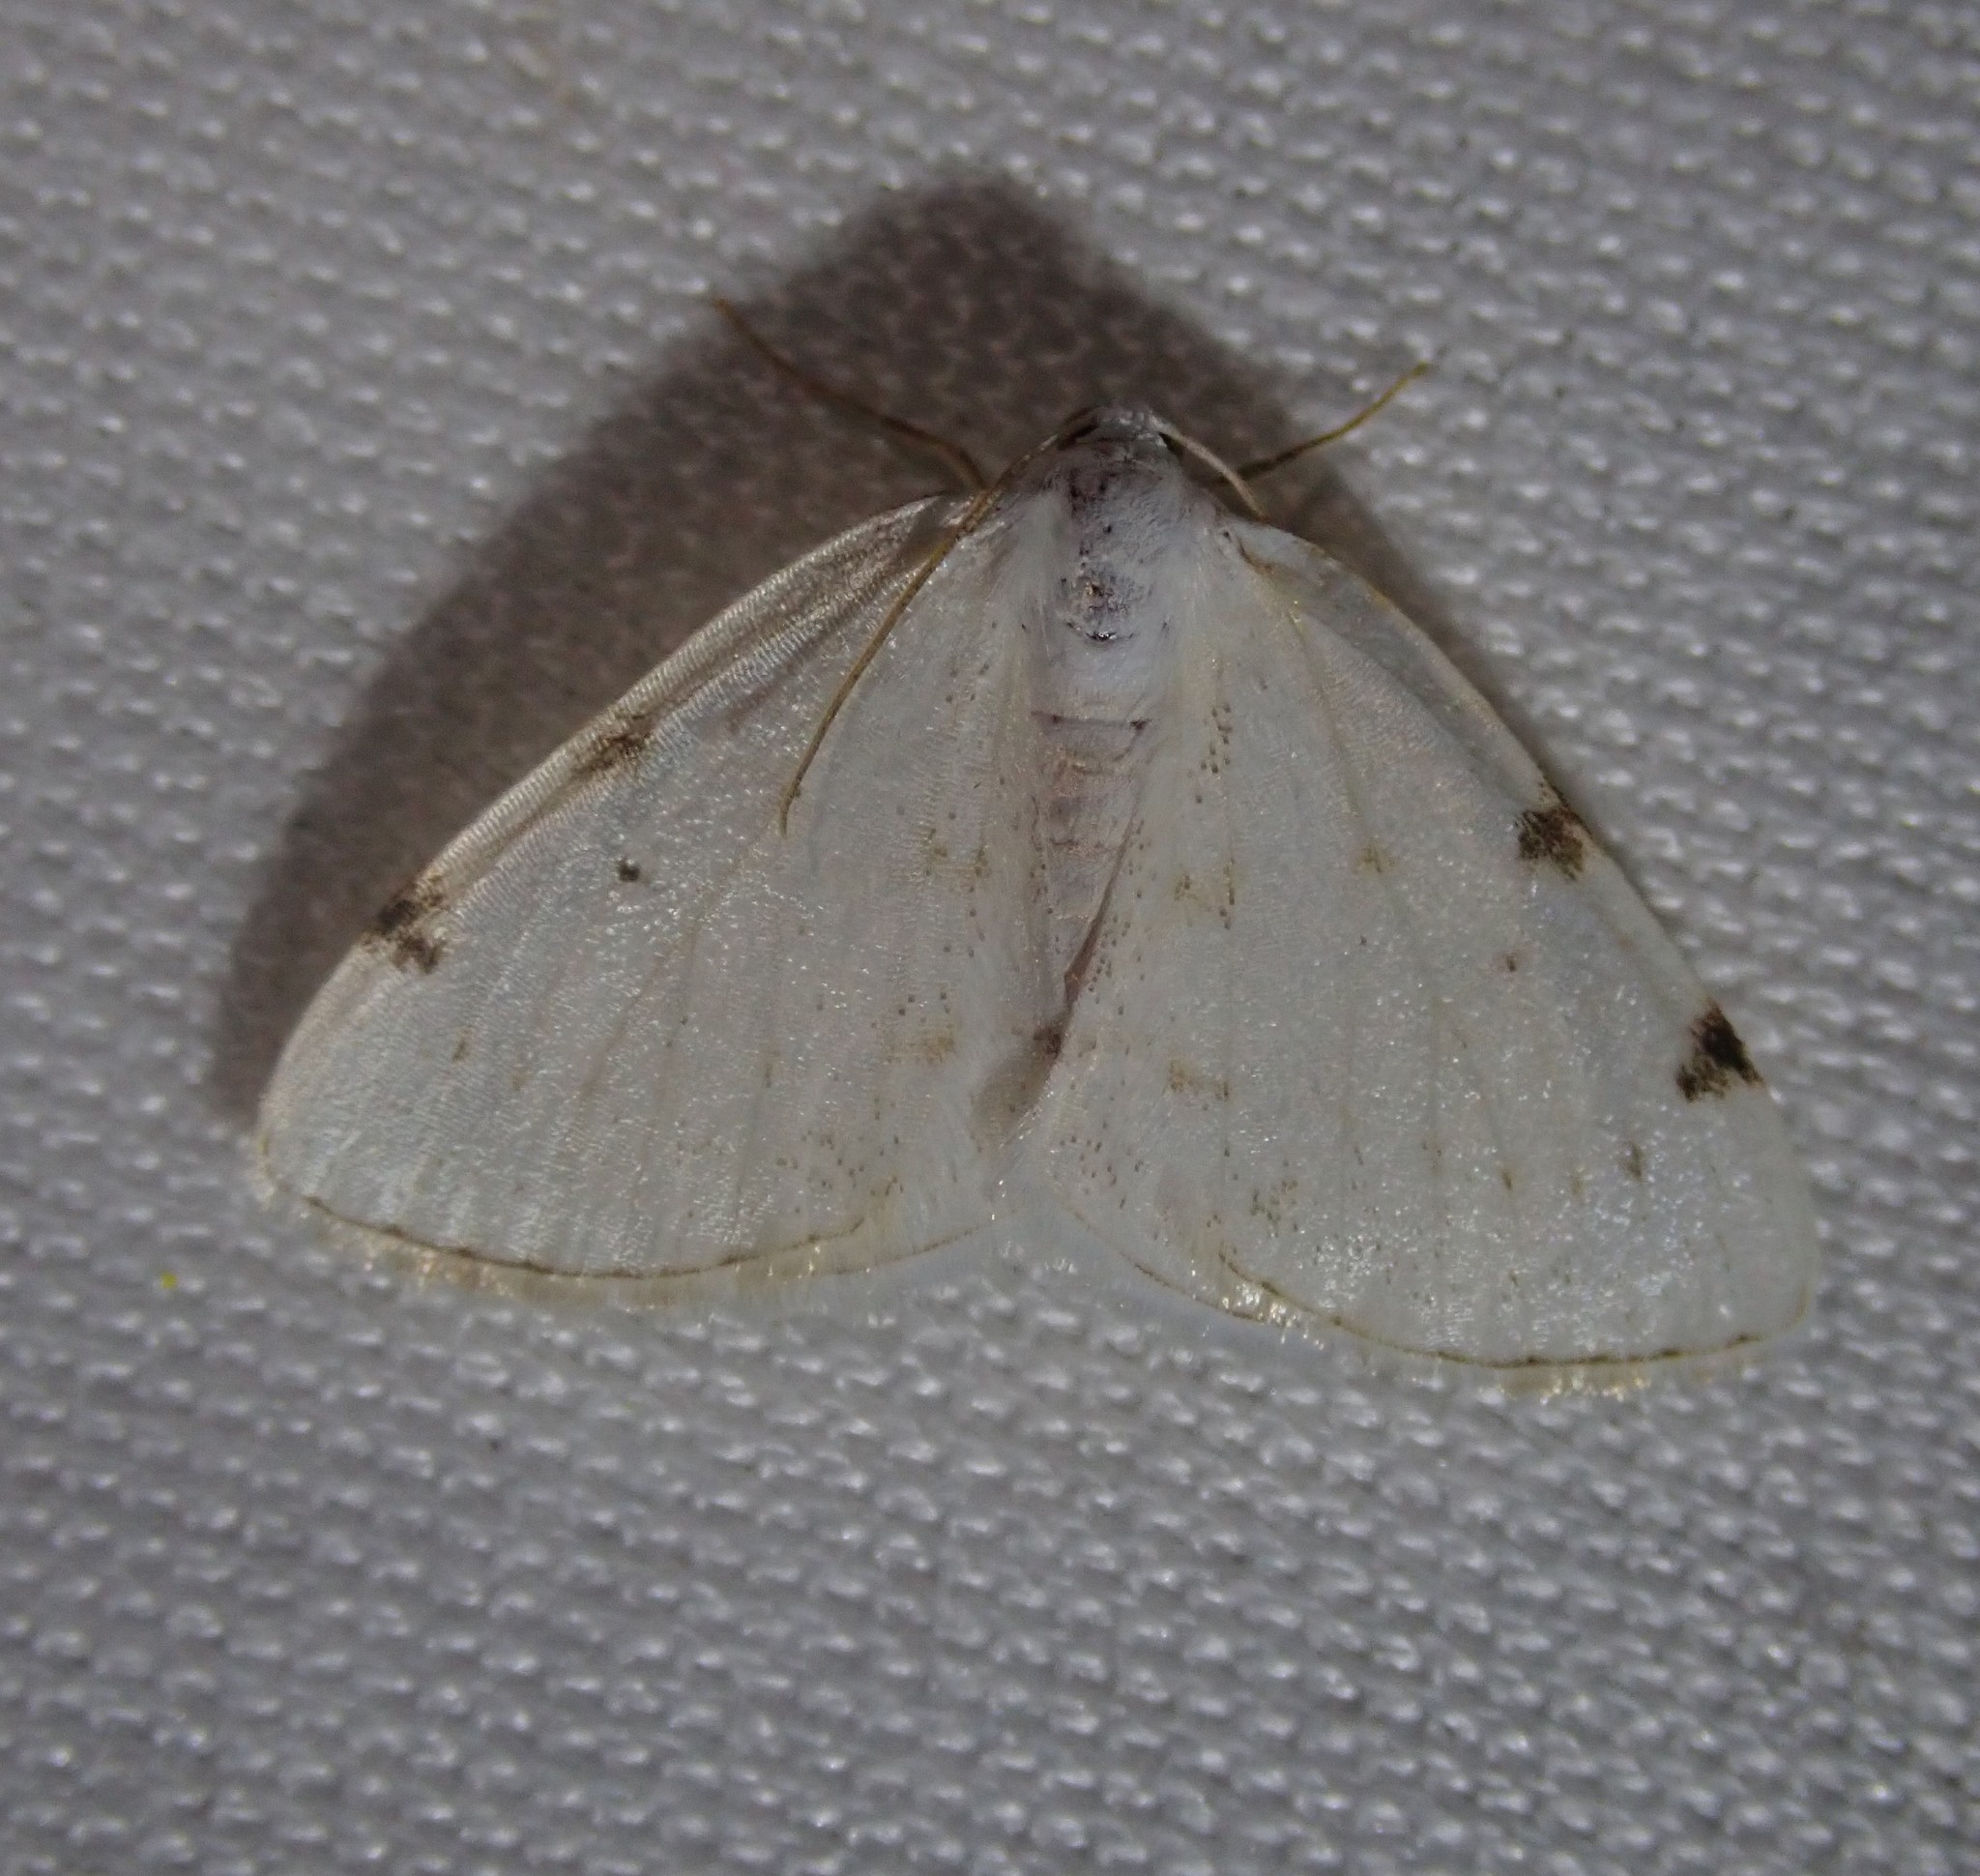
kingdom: Animalia
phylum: Arthropoda
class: Insecta
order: Lepidoptera
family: Geometridae
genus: Lomographa
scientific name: Lomographa bimaculata
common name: White-pinion spotted
